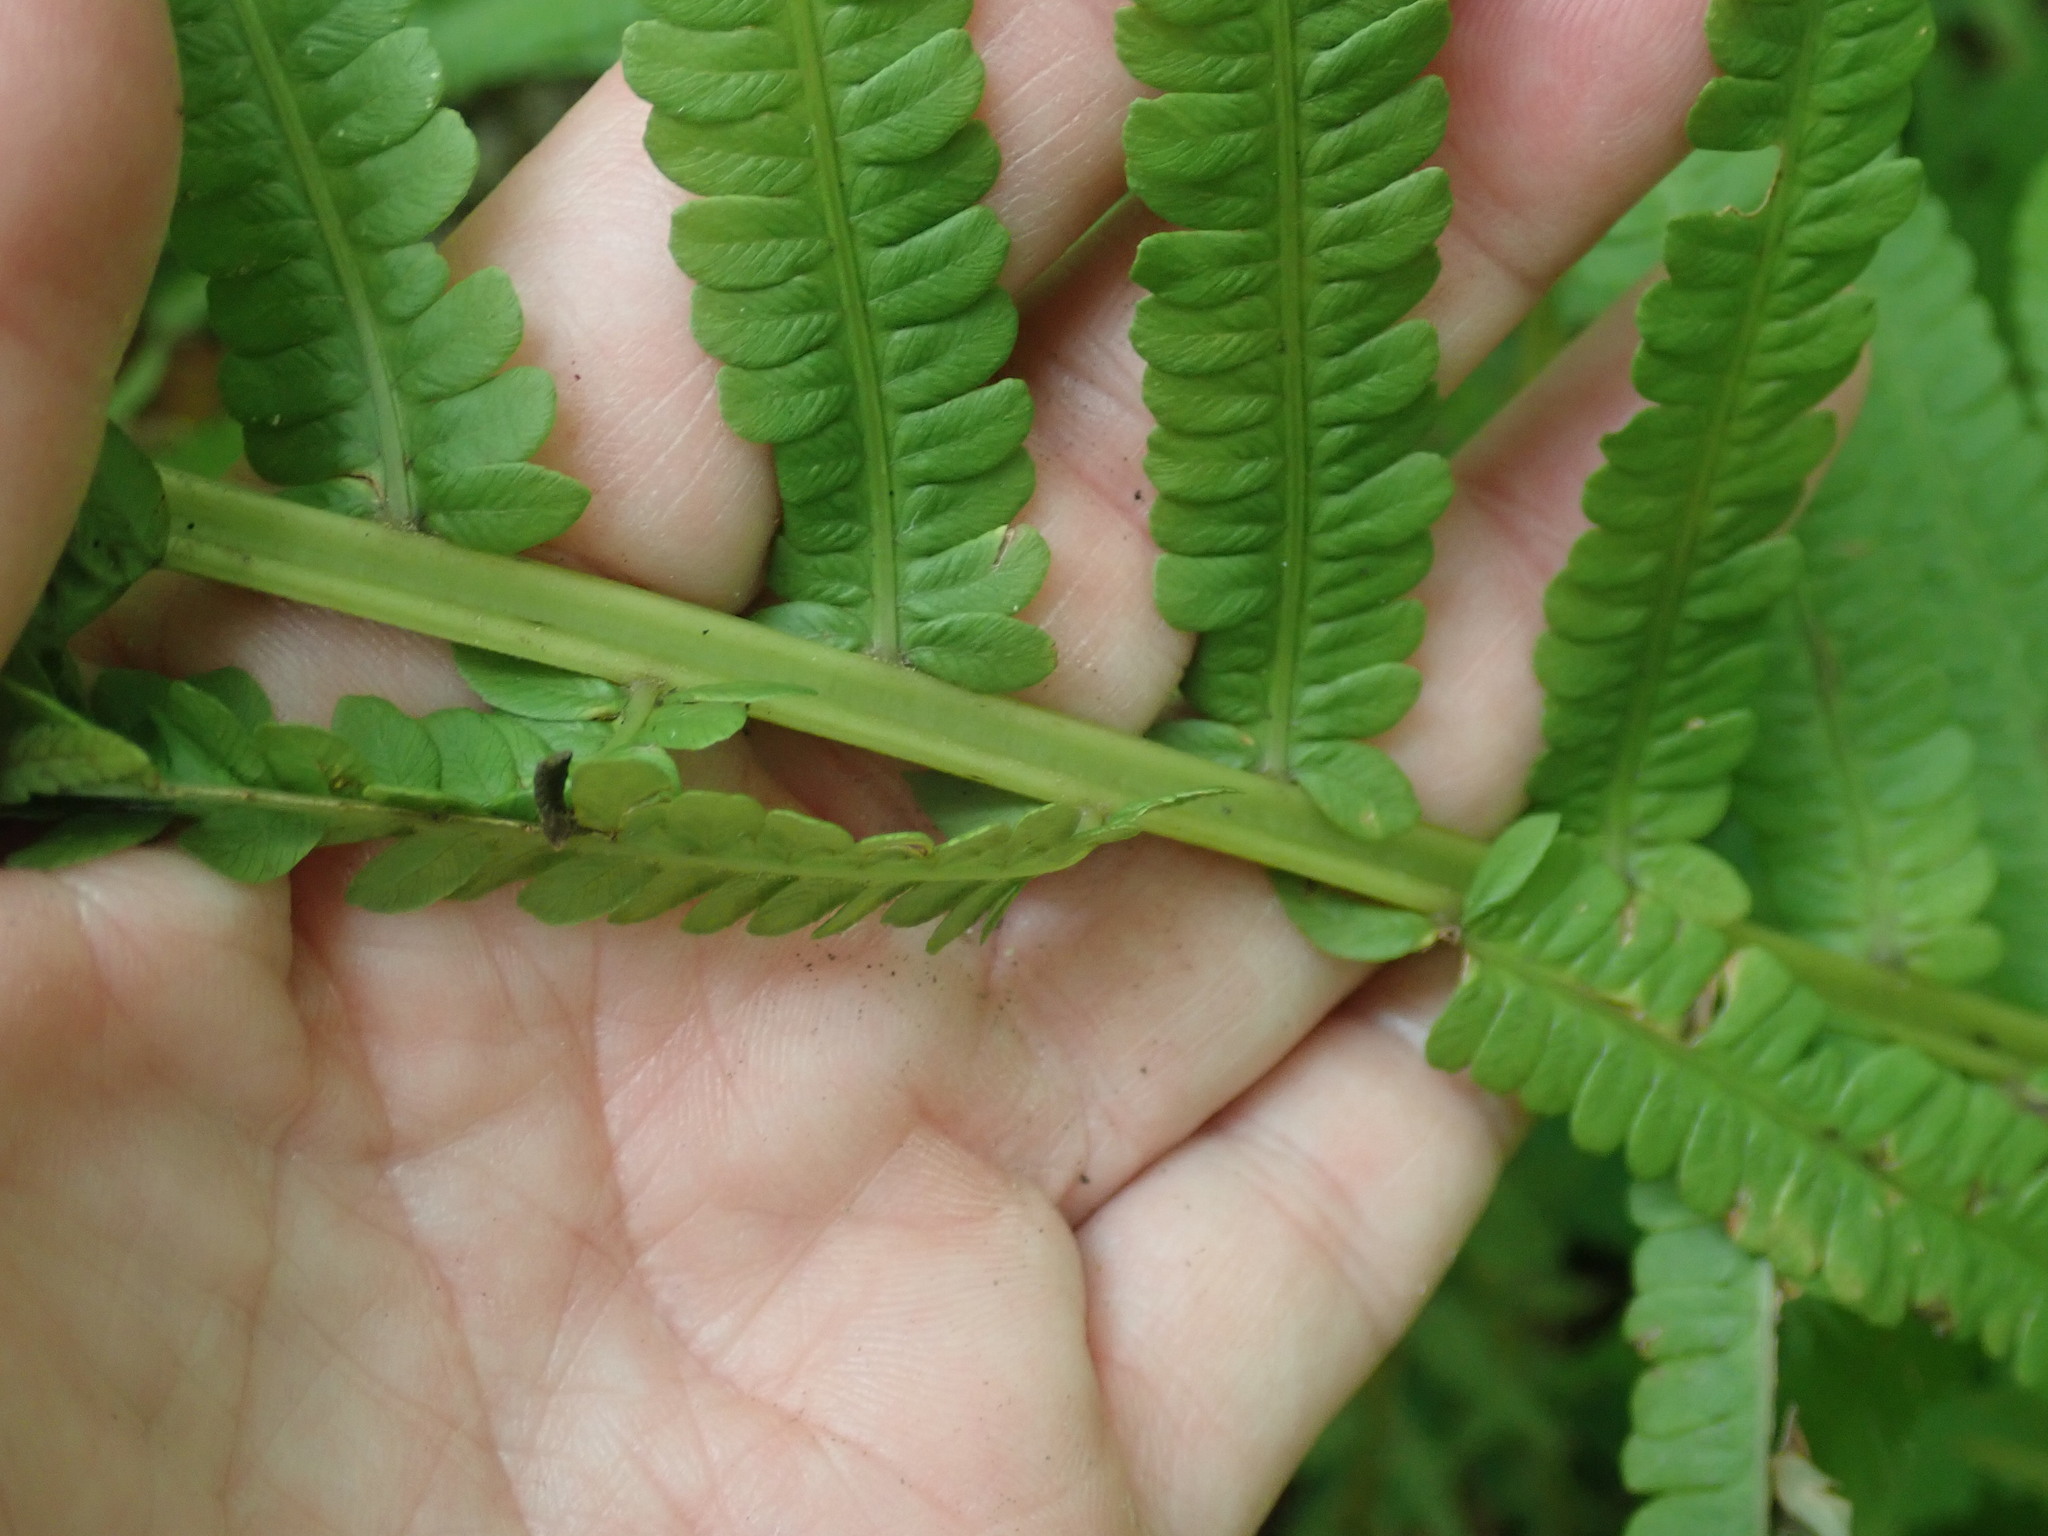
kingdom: Plantae
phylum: Tracheophyta
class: Polypodiopsida
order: Polypodiales
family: Onocleaceae
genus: Matteuccia
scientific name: Matteuccia struthiopteris
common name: Ostrich fern
